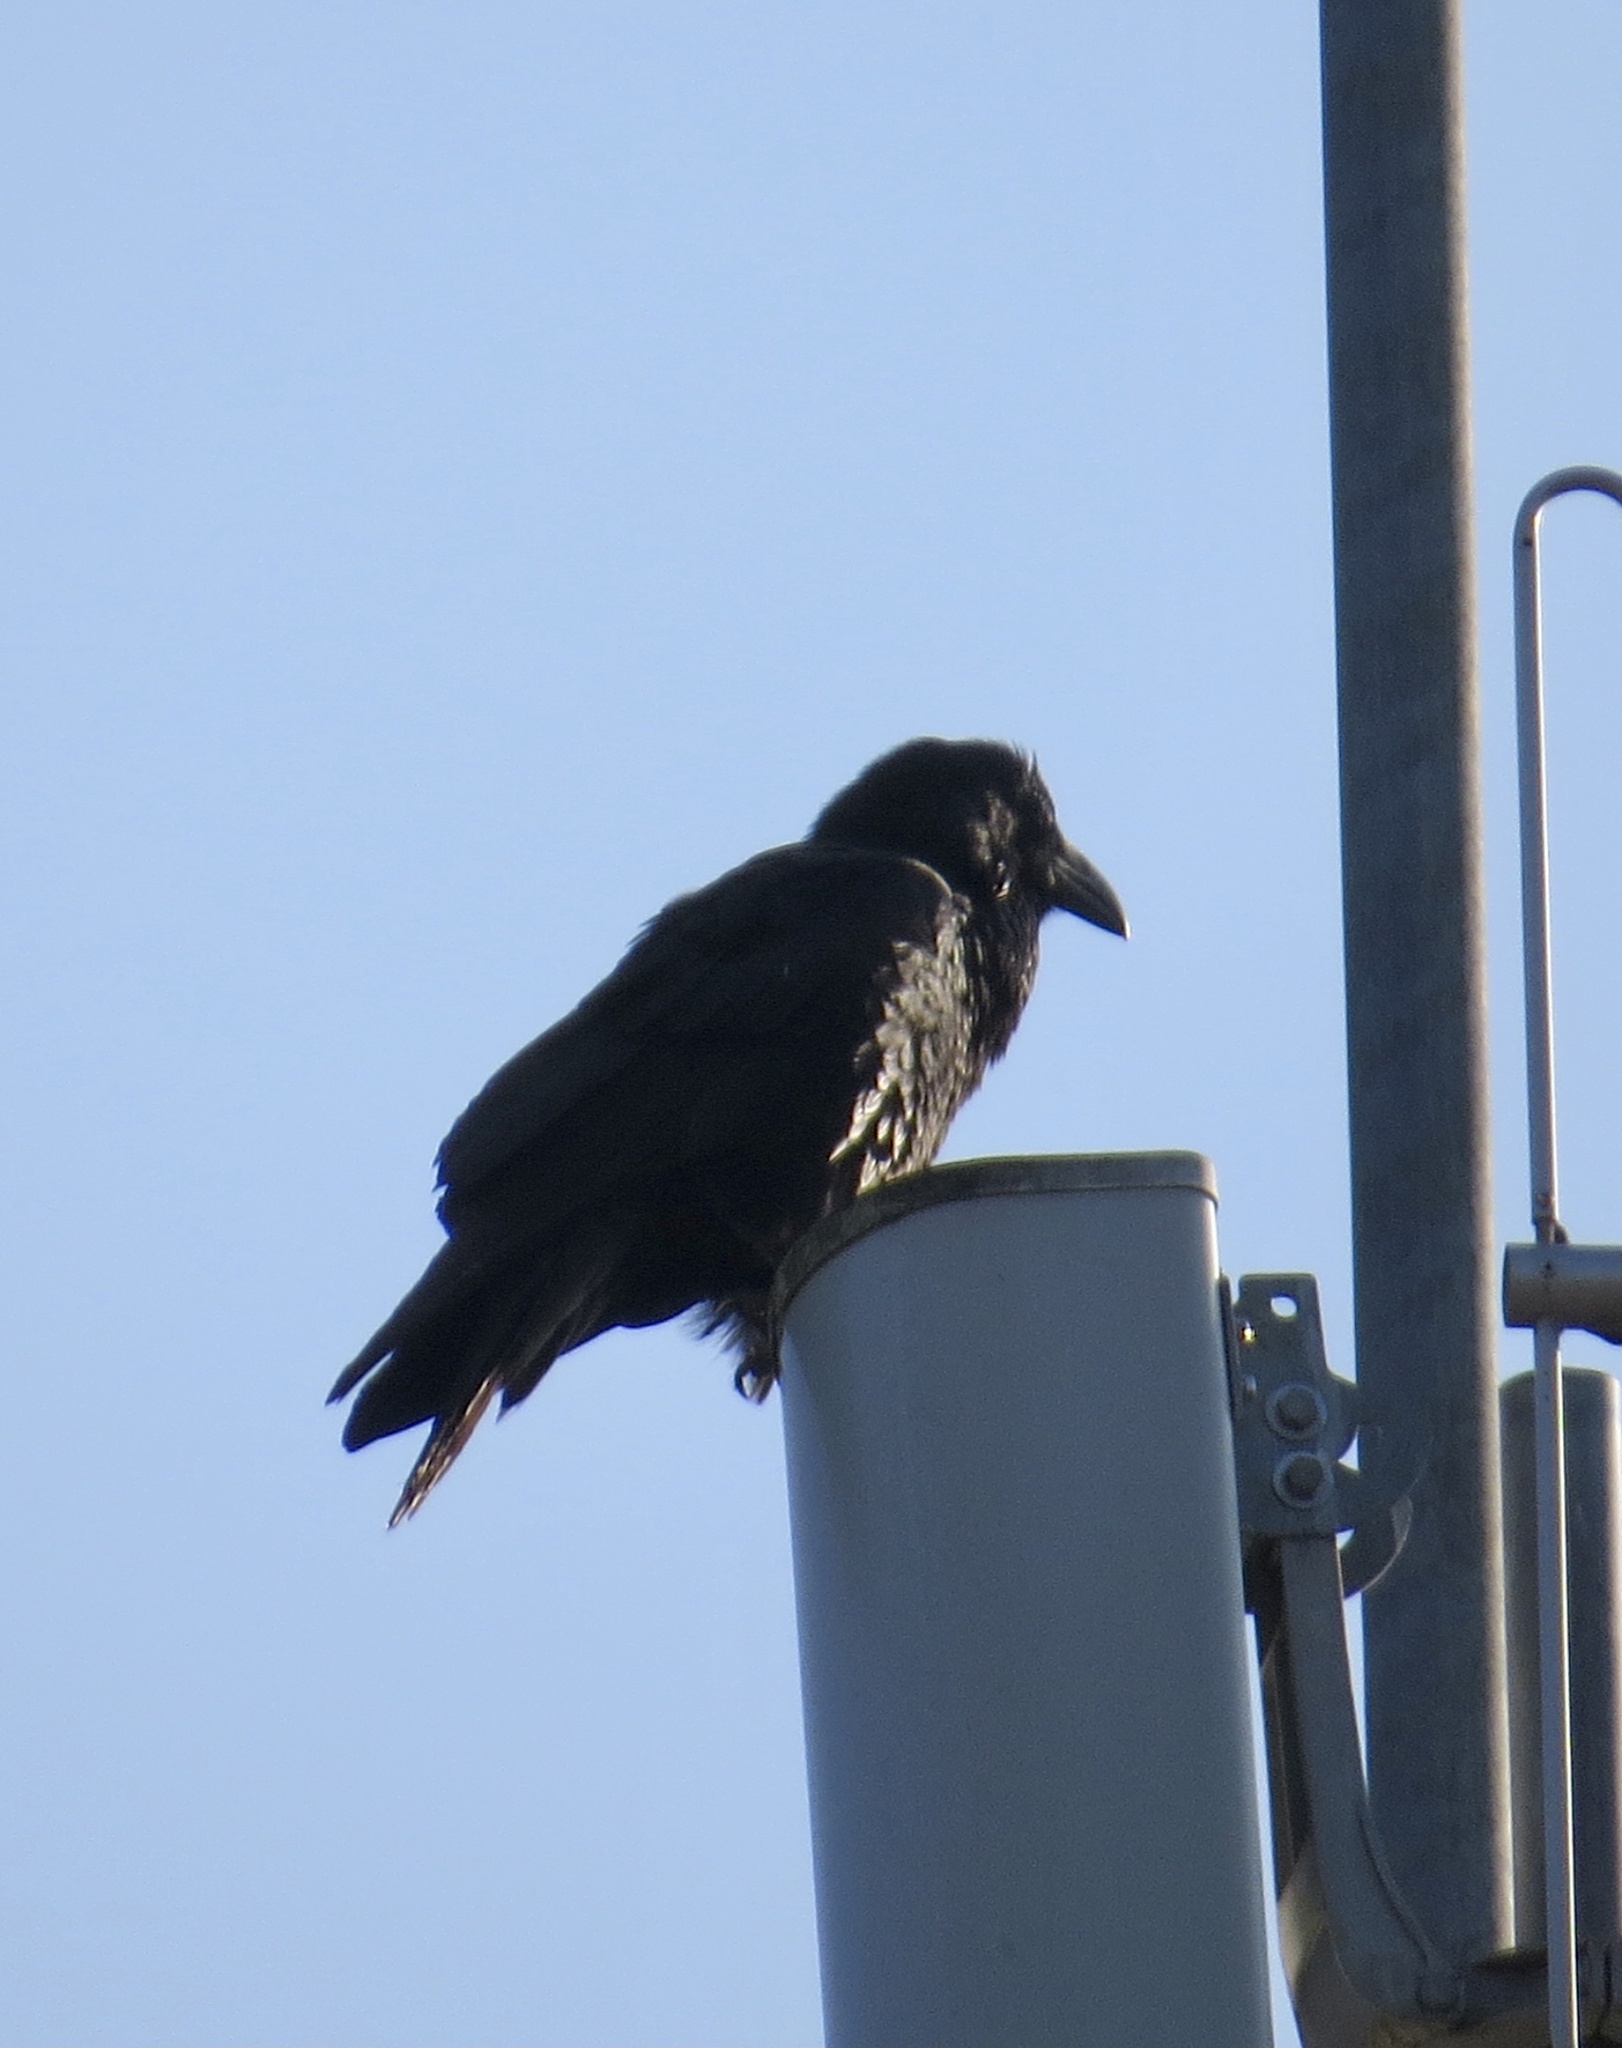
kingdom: Animalia
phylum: Chordata
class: Aves
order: Passeriformes
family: Corvidae
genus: Corvus
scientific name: Corvus corax
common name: Common raven
